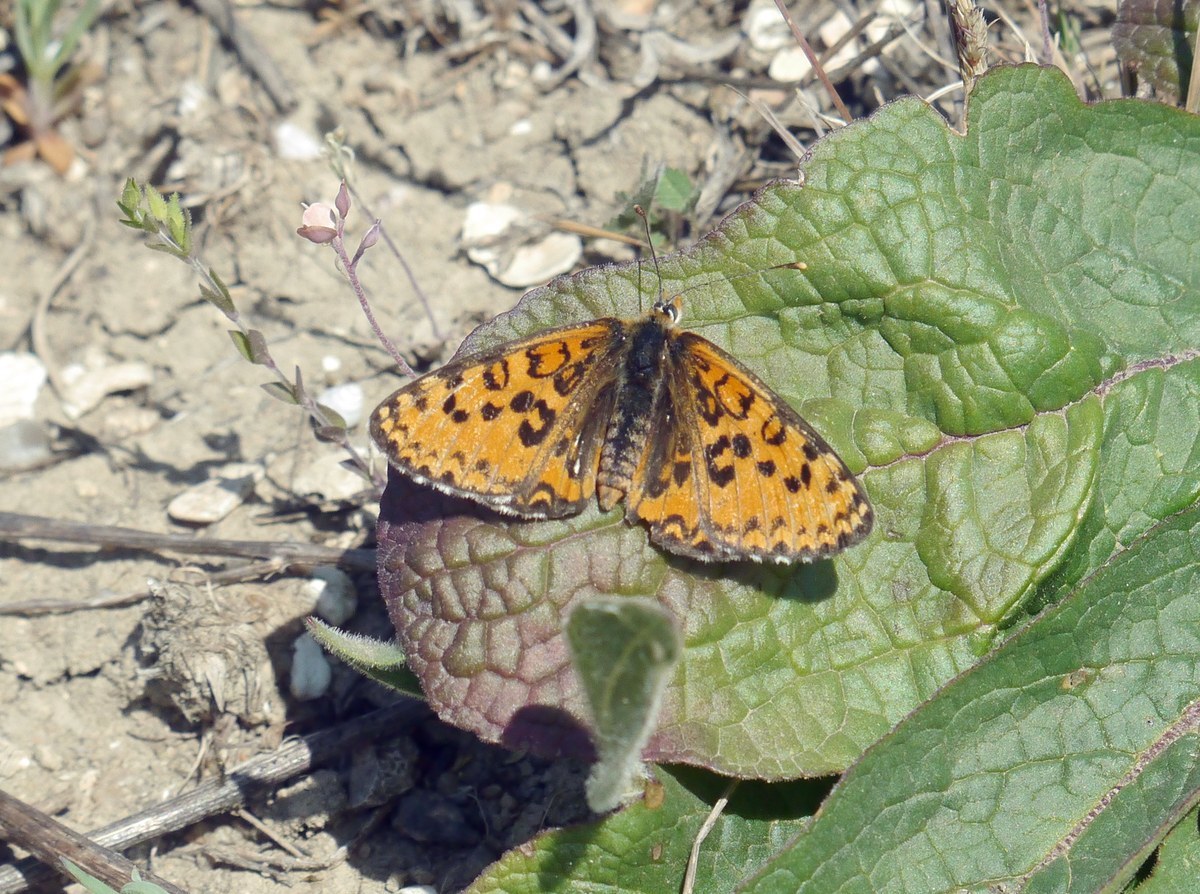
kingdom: Animalia
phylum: Arthropoda
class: Insecta
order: Lepidoptera
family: Nymphalidae
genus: Melitaea
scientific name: Melitaea trivia
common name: Lesser spotted fritillary
